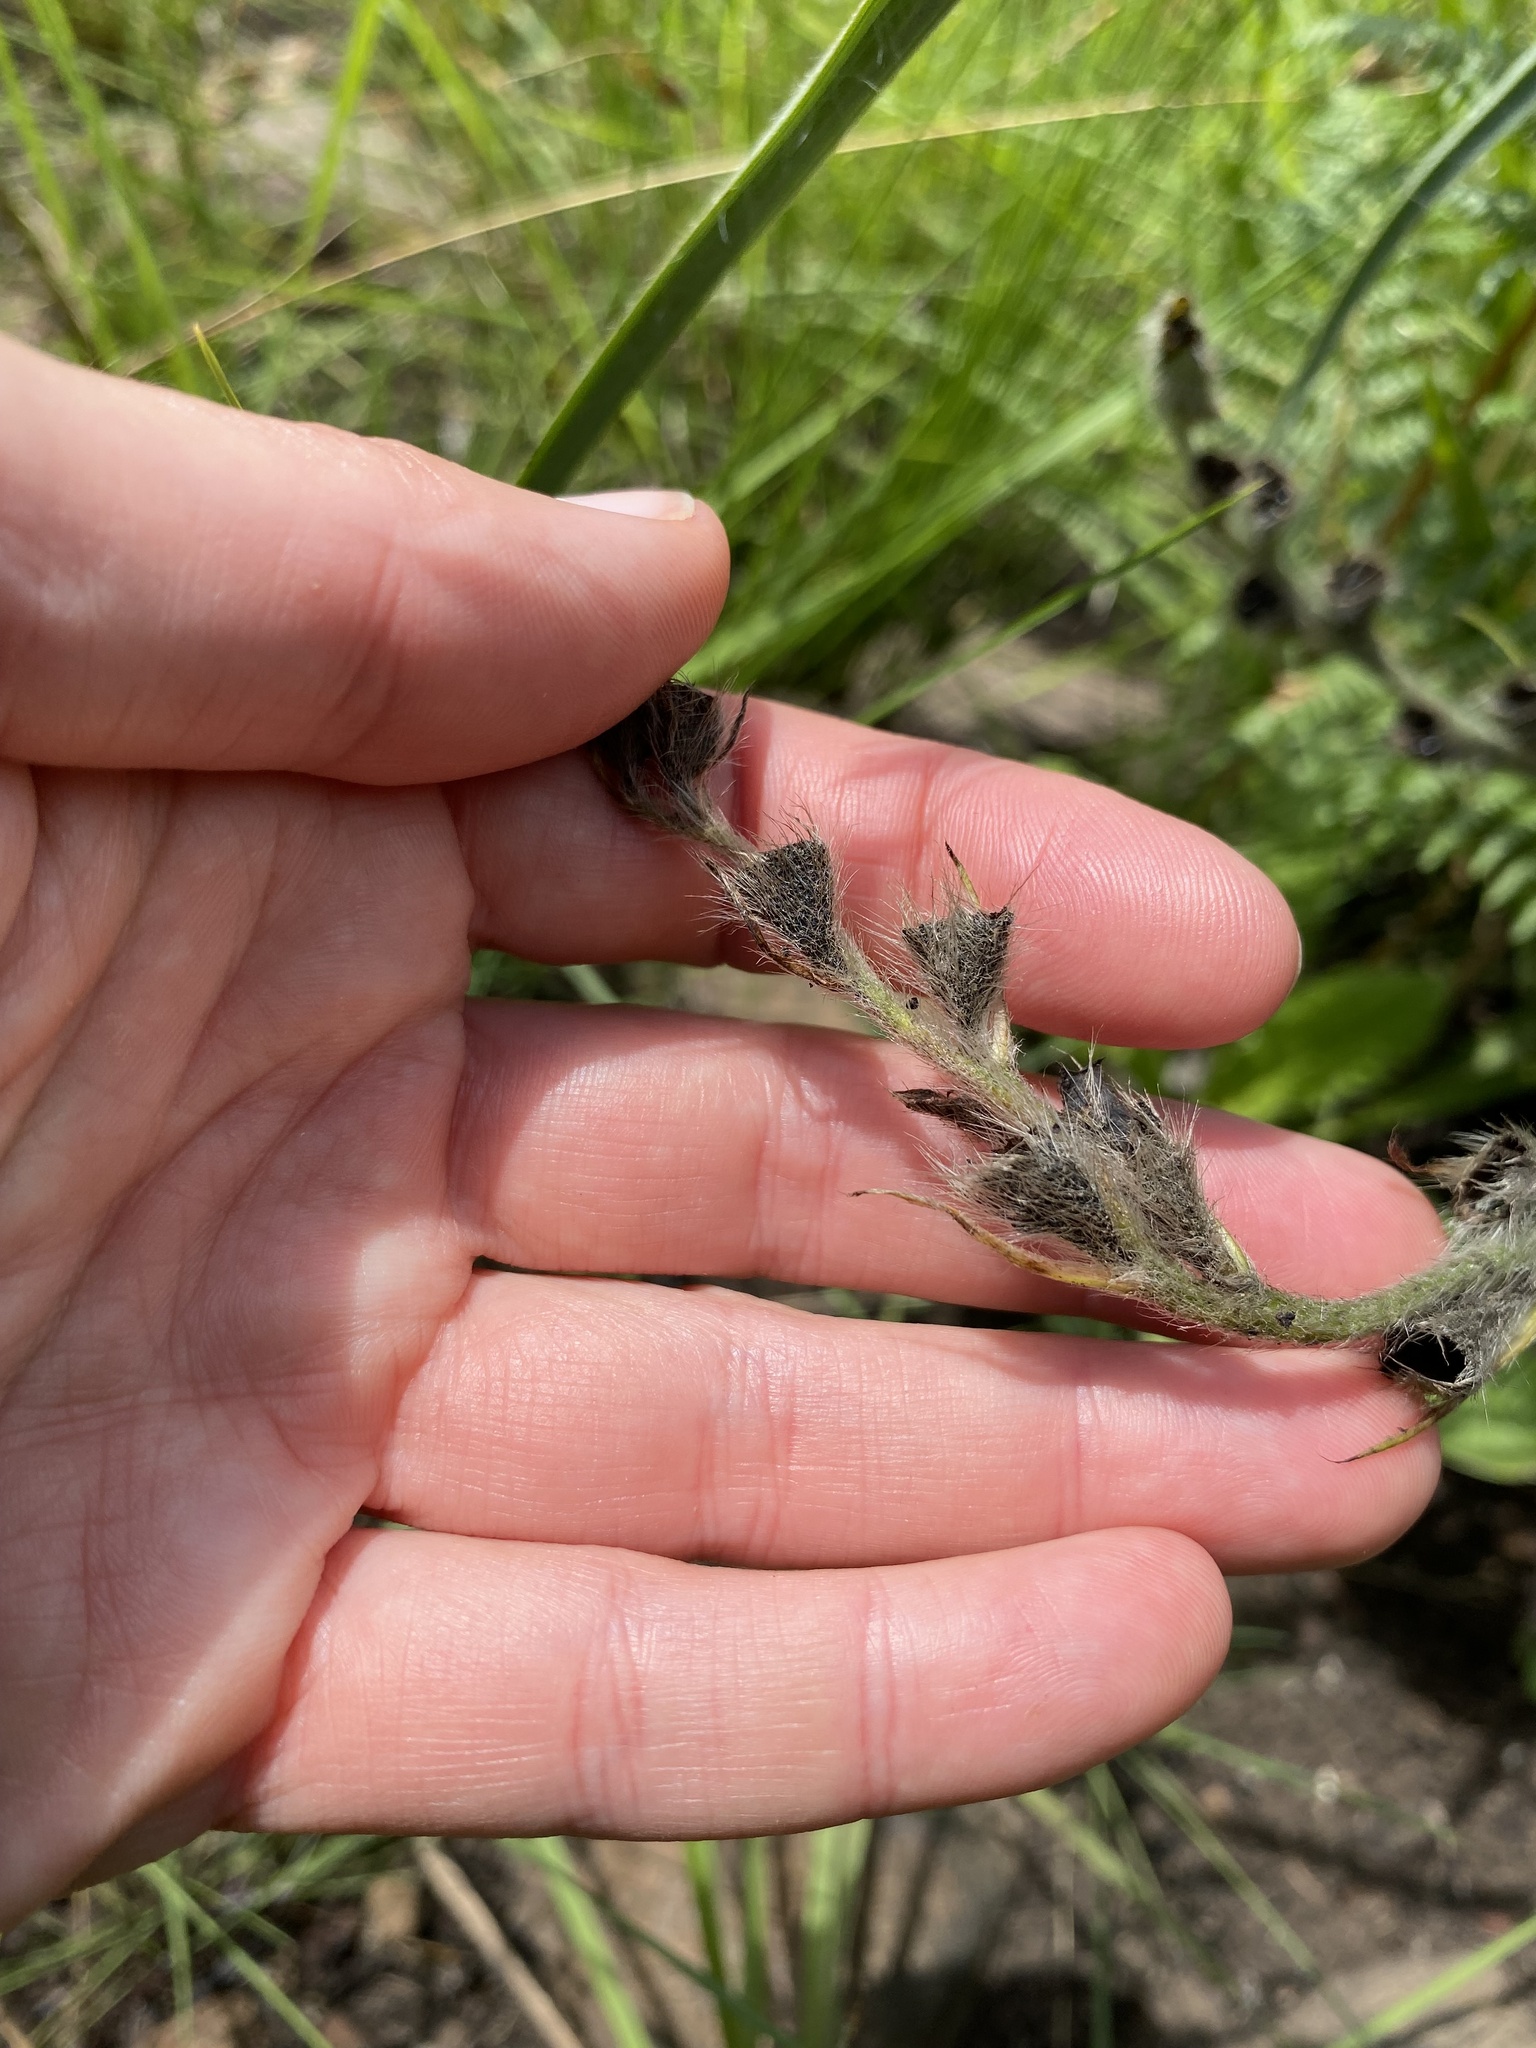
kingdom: Plantae
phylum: Tracheophyta
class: Liliopsida
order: Asparagales
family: Hypoxidaceae
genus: Hypoxis
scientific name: Hypoxis rigidula
